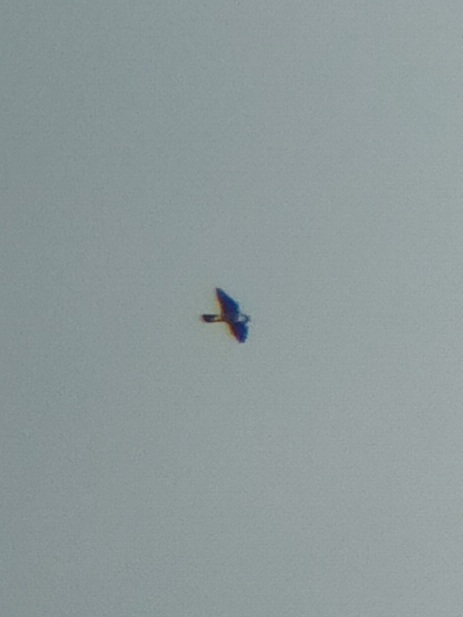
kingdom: Animalia
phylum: Chordata
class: Aves
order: Falconiformes
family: Falconidae
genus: Falco
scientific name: Falco peregrinus
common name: Peregrine falcon
